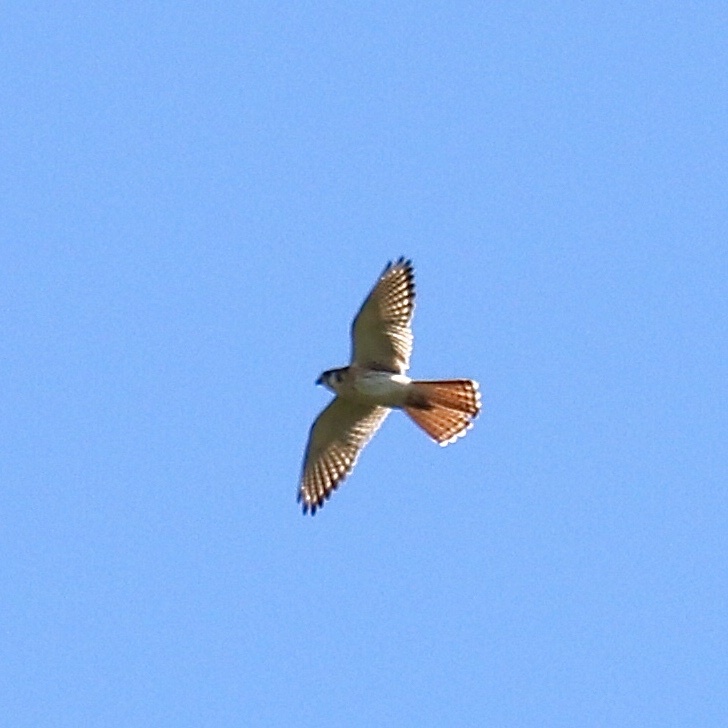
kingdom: Animalia
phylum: Chordata
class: Aves
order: Falconiformes
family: Falconidae
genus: Falco
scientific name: Falco sparverius
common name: American kestrel
